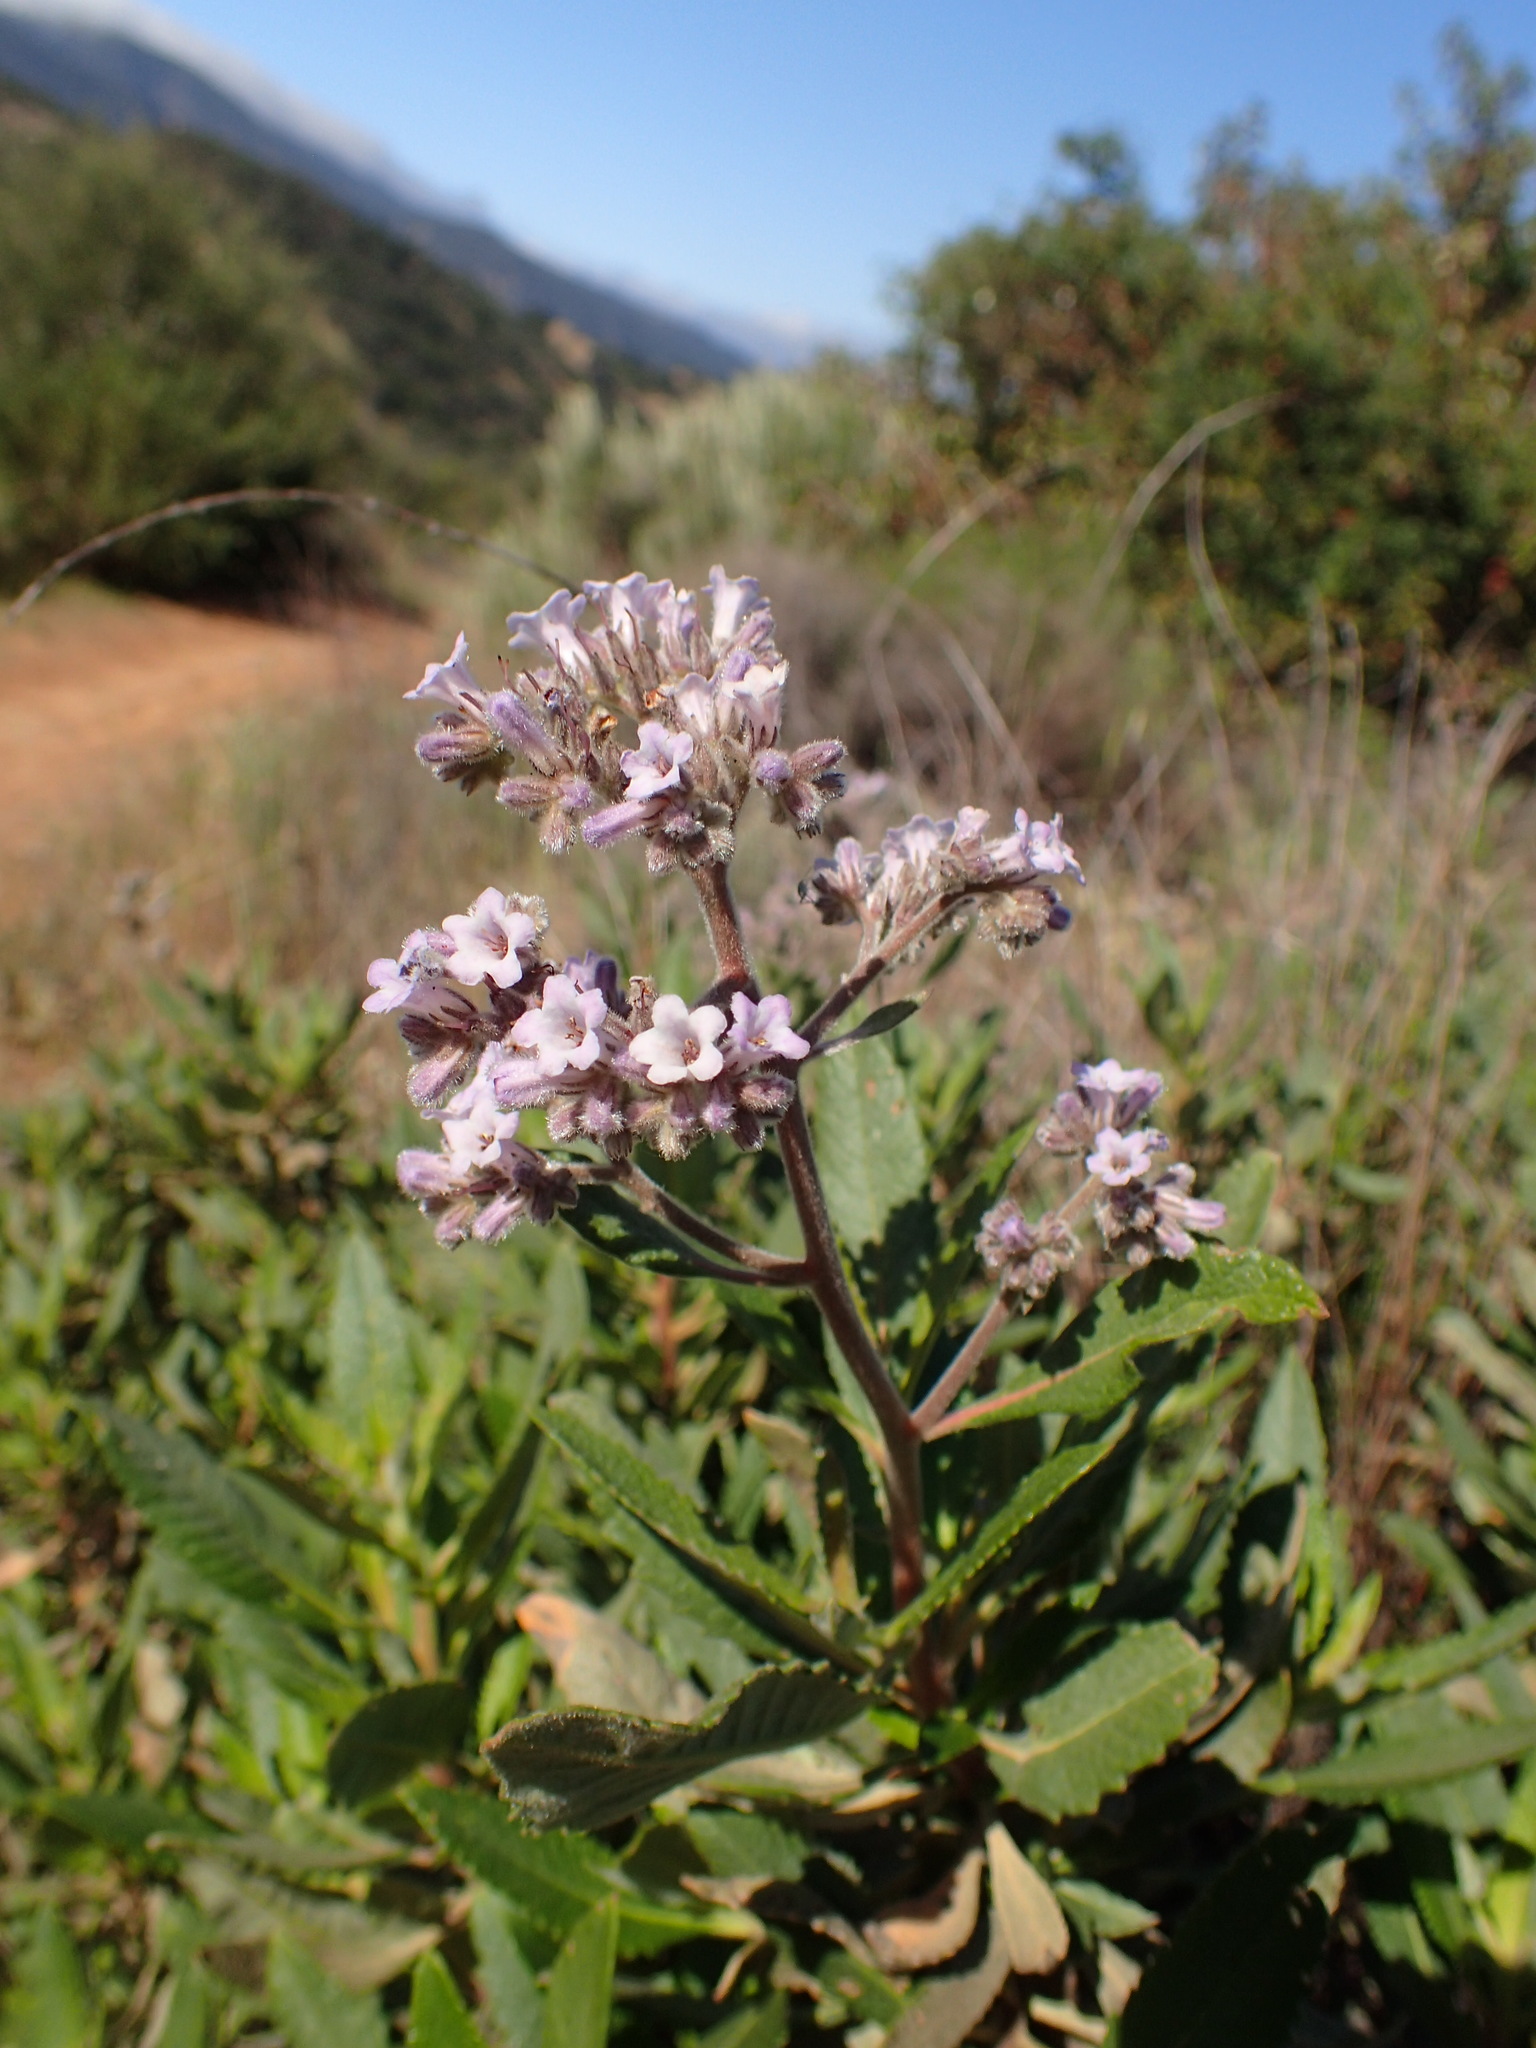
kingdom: Plantae
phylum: Tracheophyta
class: Magnoliopsida
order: Boraginales
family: Namaceae
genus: Eriodictyon
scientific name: Eriodictyon crassifolium
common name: Thick-leaf yerba-santa
